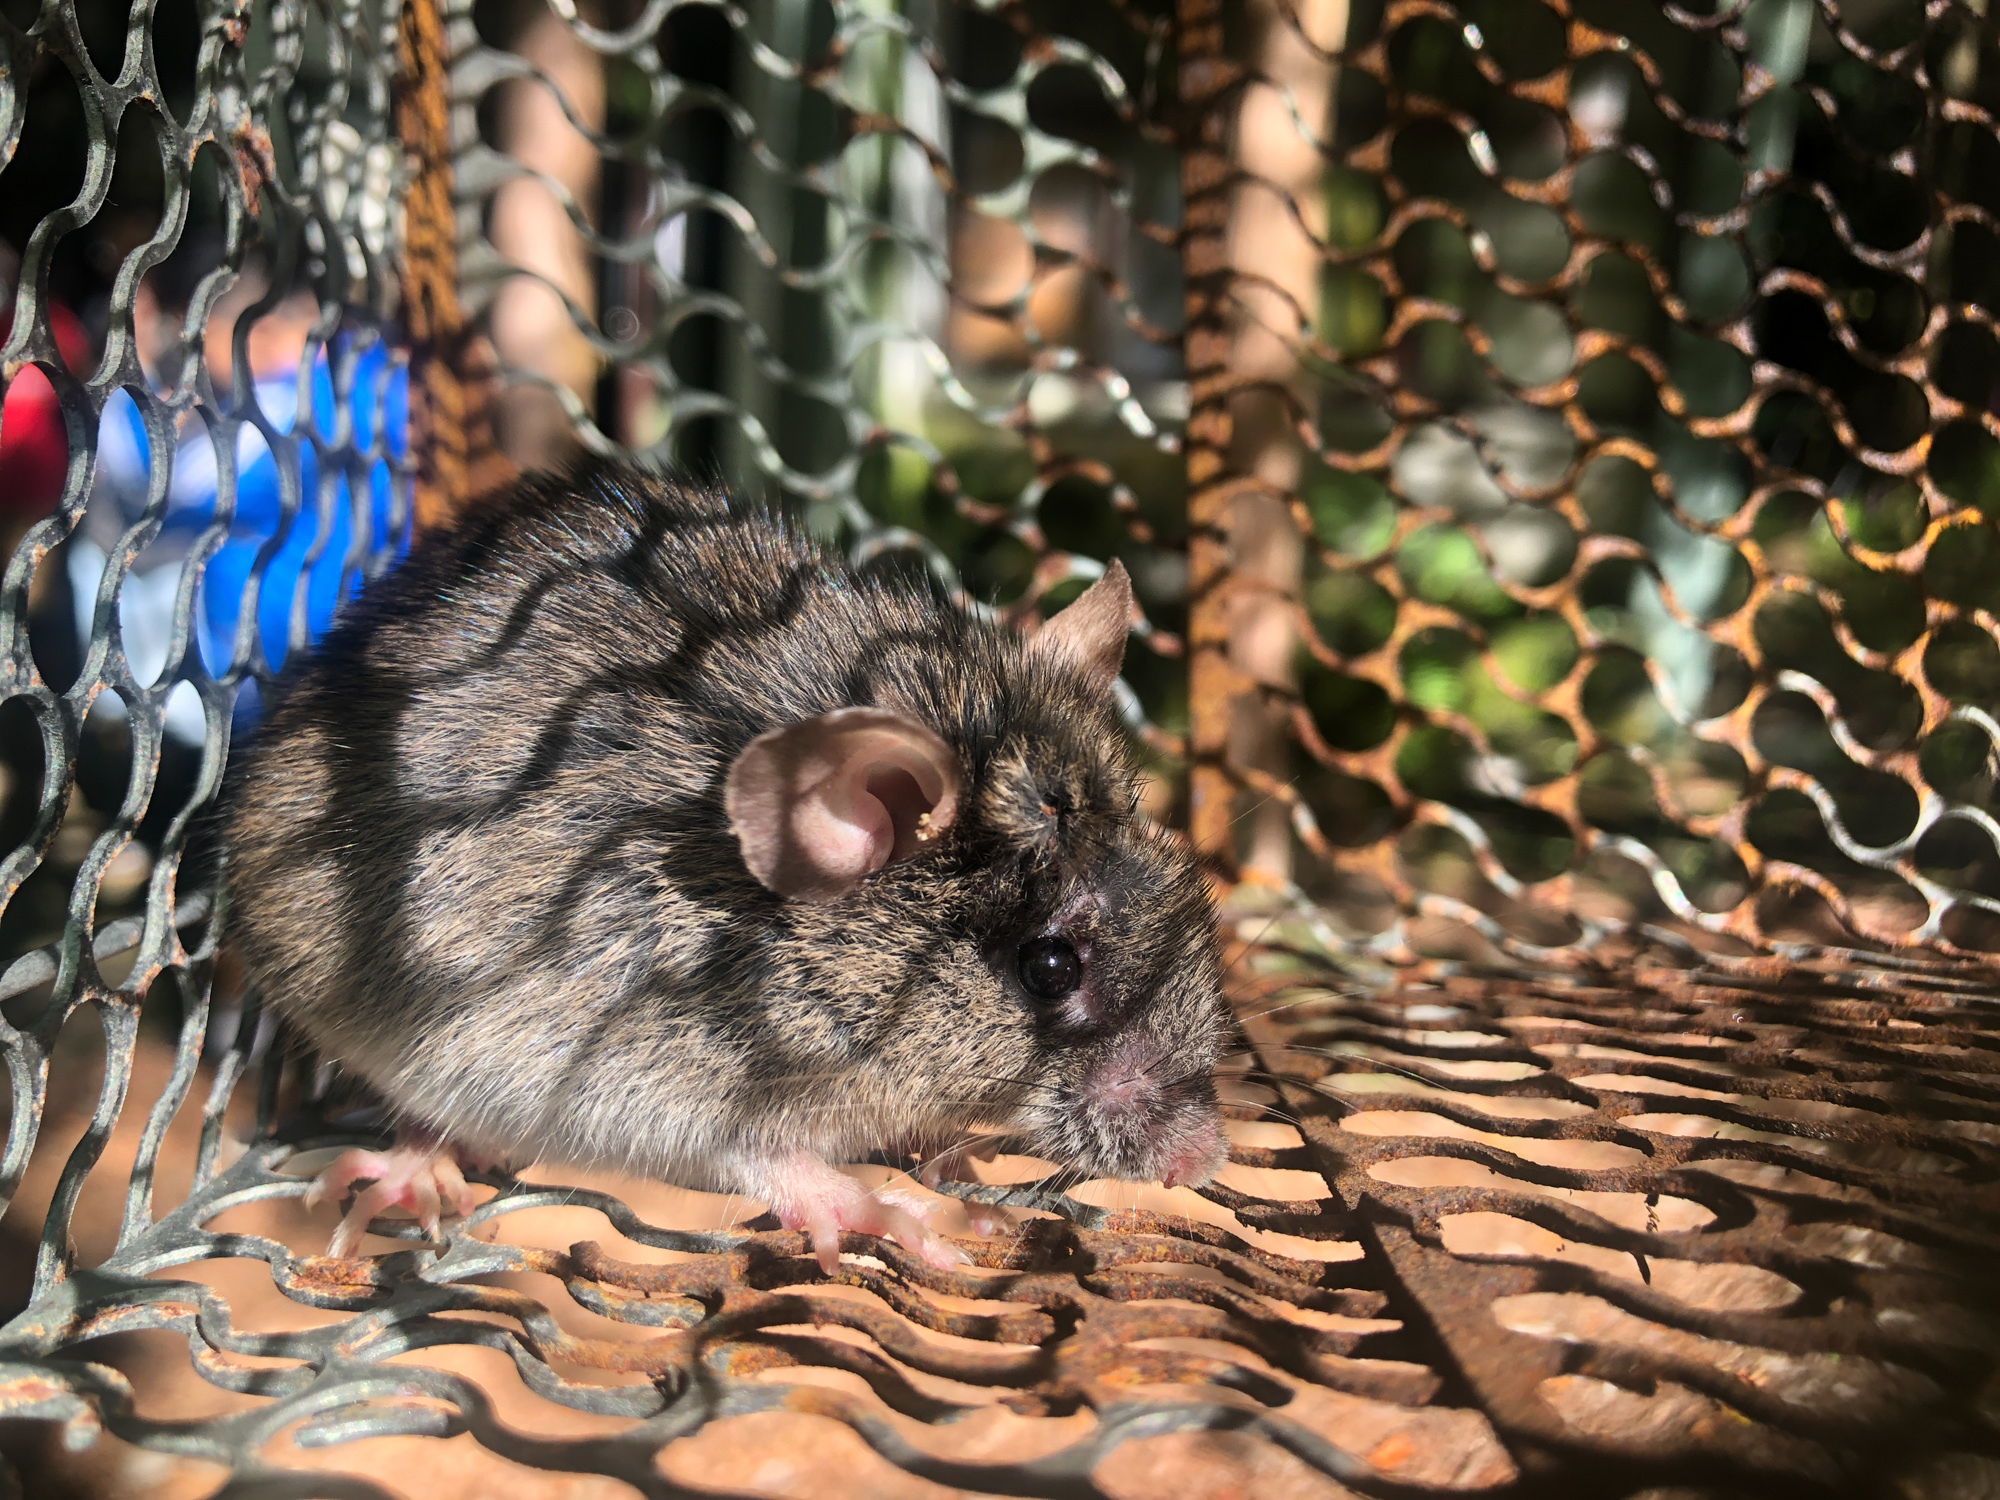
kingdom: Animalia
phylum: Chordata
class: Mammalia
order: Rodentia
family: Muridae
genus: Apodemus
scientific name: Apodemus semotus
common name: Taiwan field mouse
